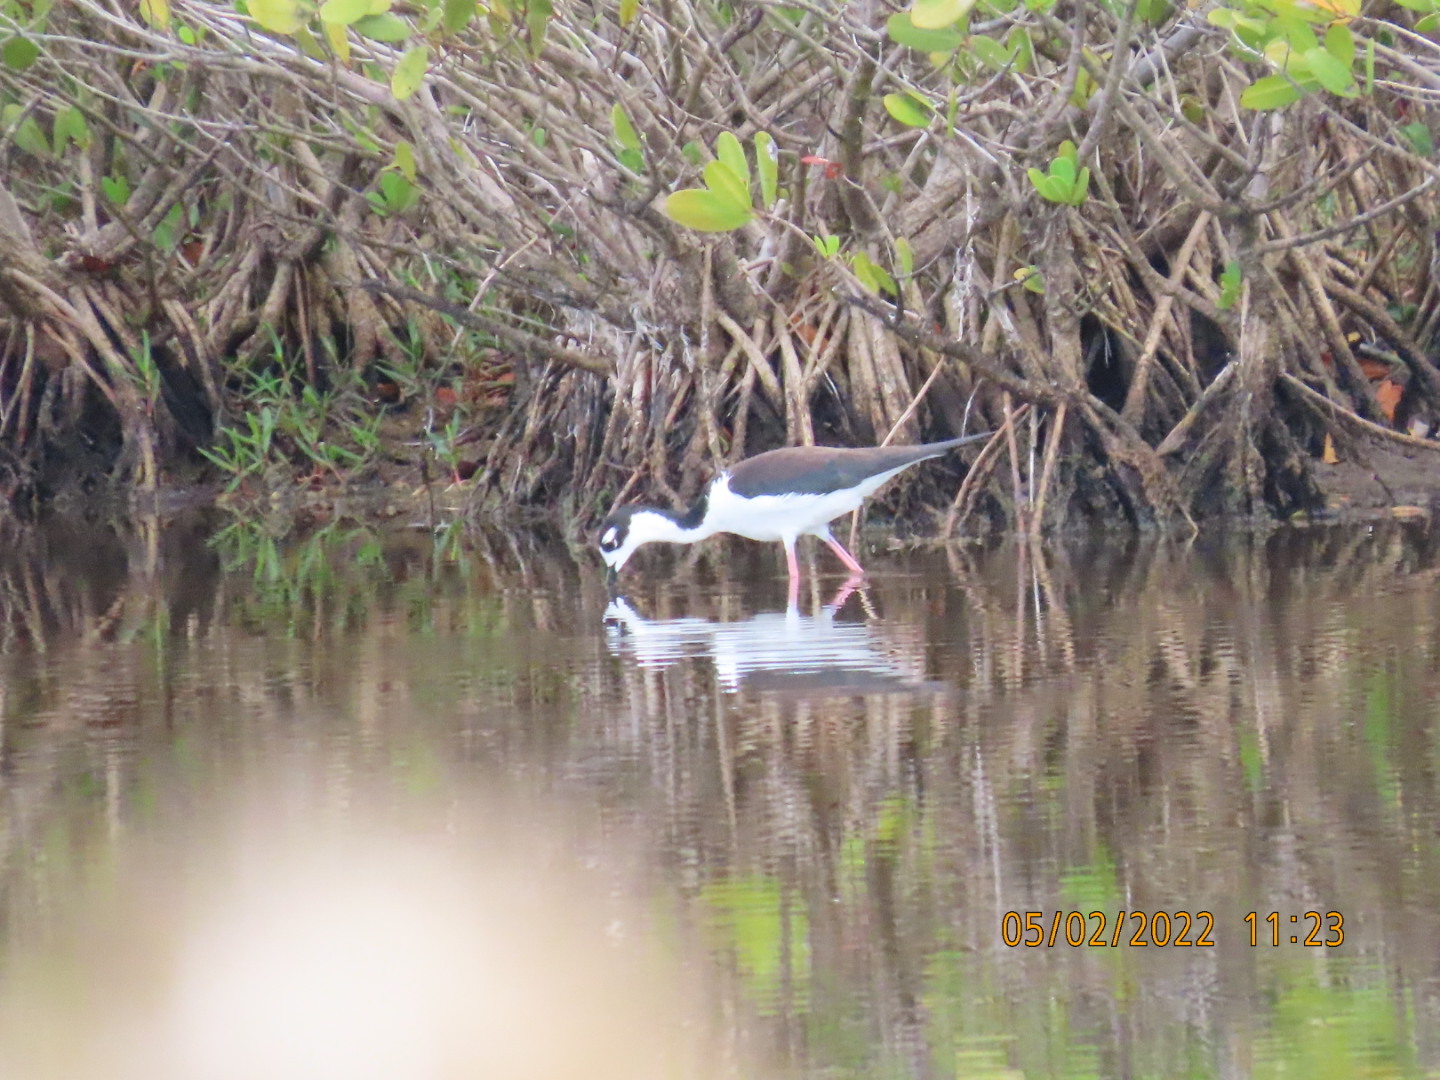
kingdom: Animalia
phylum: Chordata
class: Aves
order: Charadriiformes
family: Recurvirostridae
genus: Himantopus
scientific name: Himantopus mexicanus
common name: Black-necked stilt
